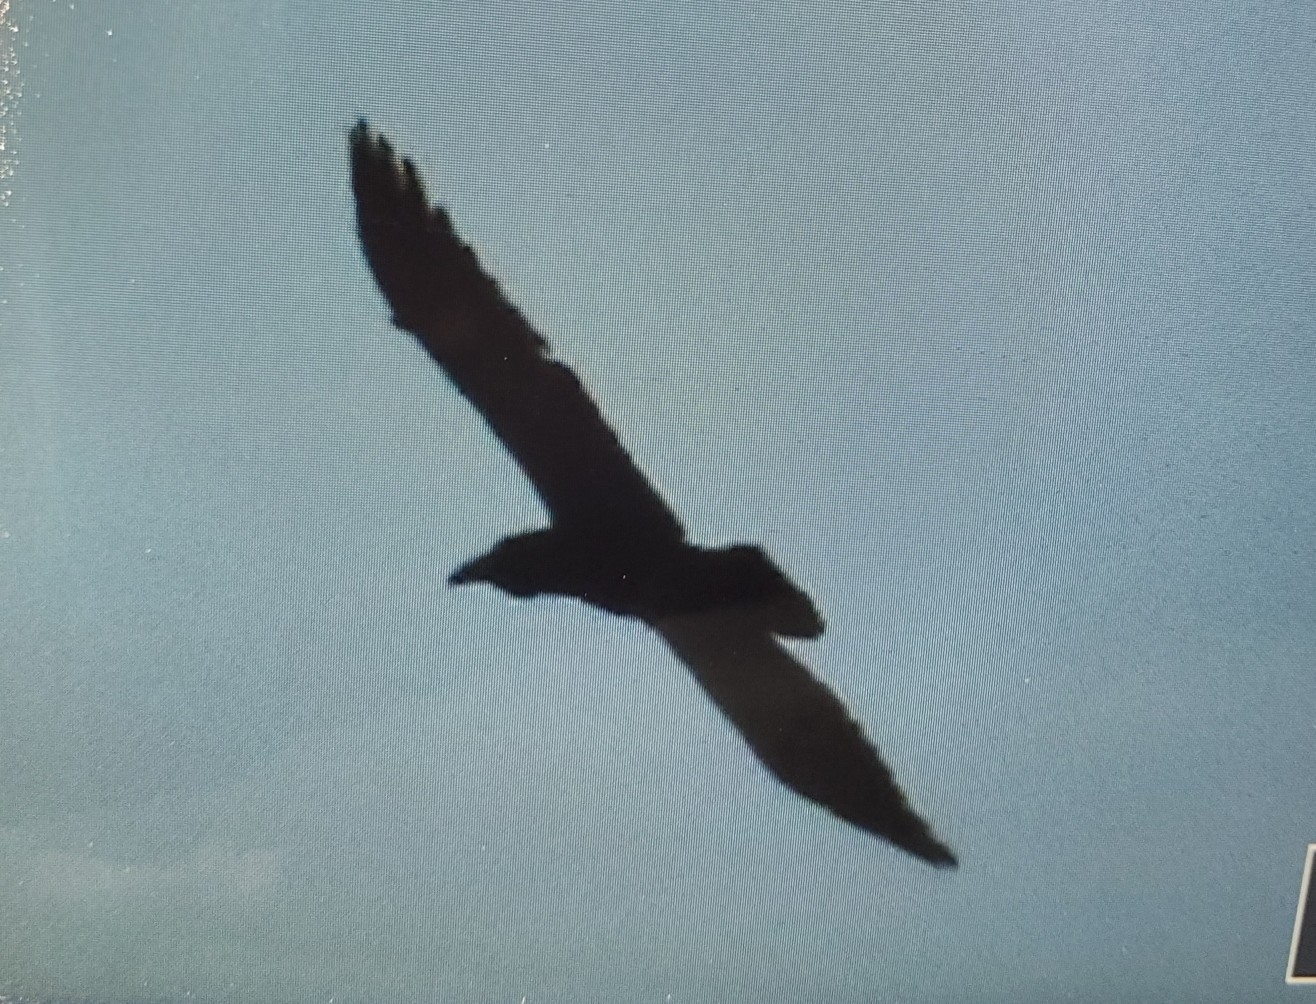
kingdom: Animalia
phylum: Chordata
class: Aves
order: Passeriformes
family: Corvidae
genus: Corvus
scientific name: Corvus corax
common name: Common raven
